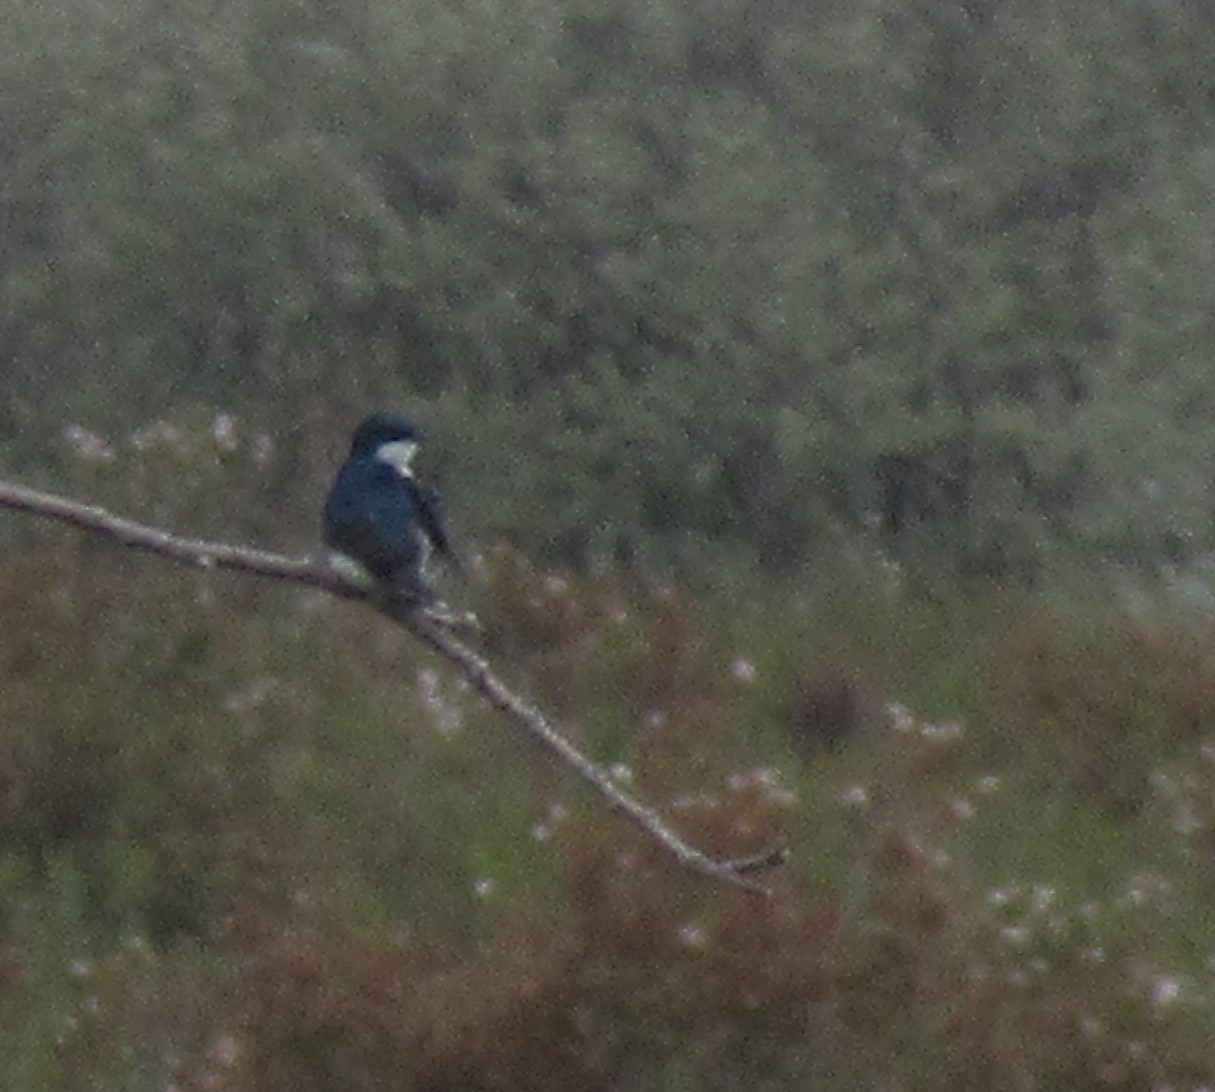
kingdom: Animalia
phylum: Chordata
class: Aves
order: Passeriformes
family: Hirundinidae
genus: Tachycineta
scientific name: Tachycineta bicolor
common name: Tree swallow
